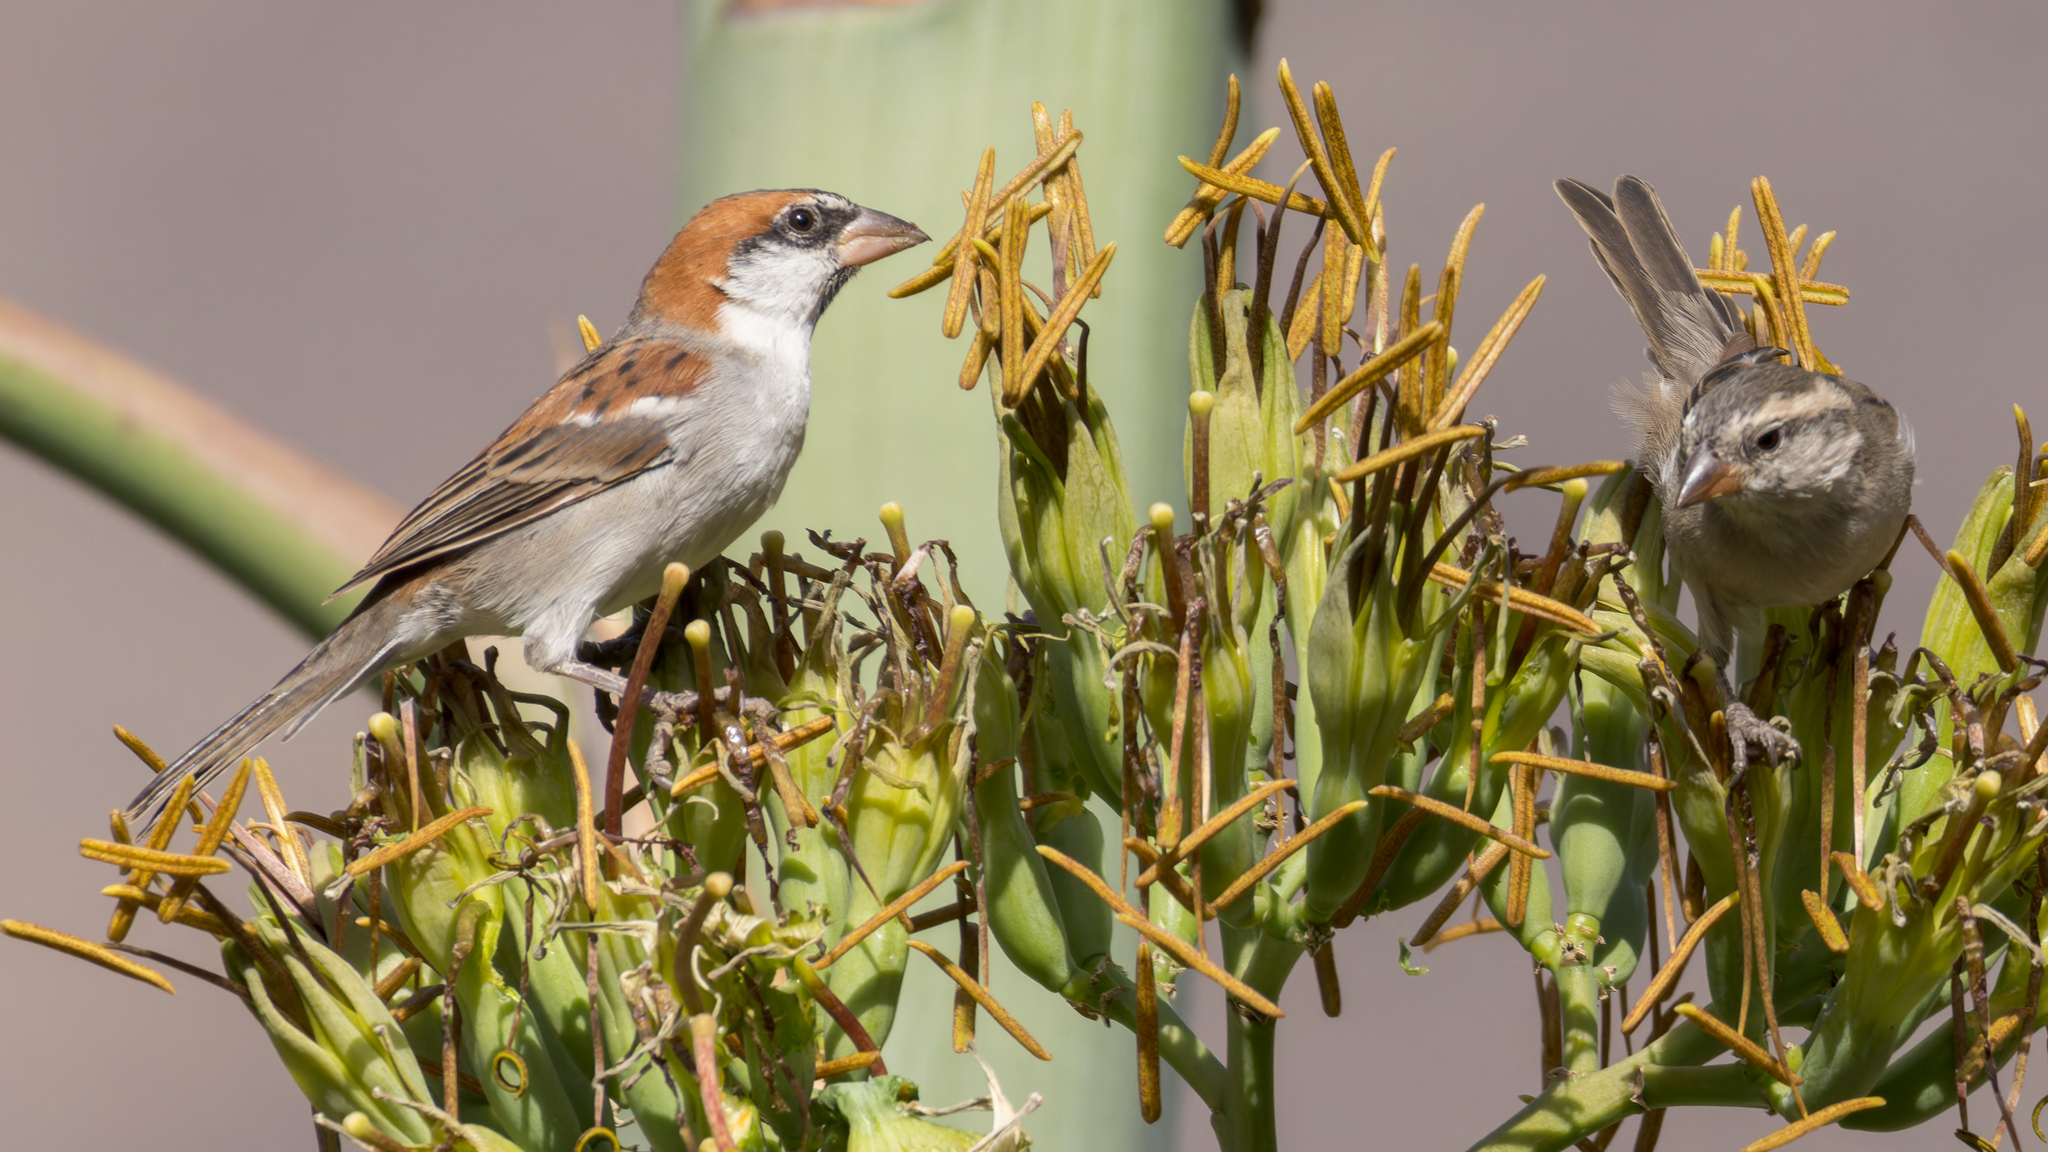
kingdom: Animalia
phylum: Chordata
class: Aves
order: Passeriformes
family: Passeridae
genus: Passer
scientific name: Passer iagoensis
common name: Iago sparrow
